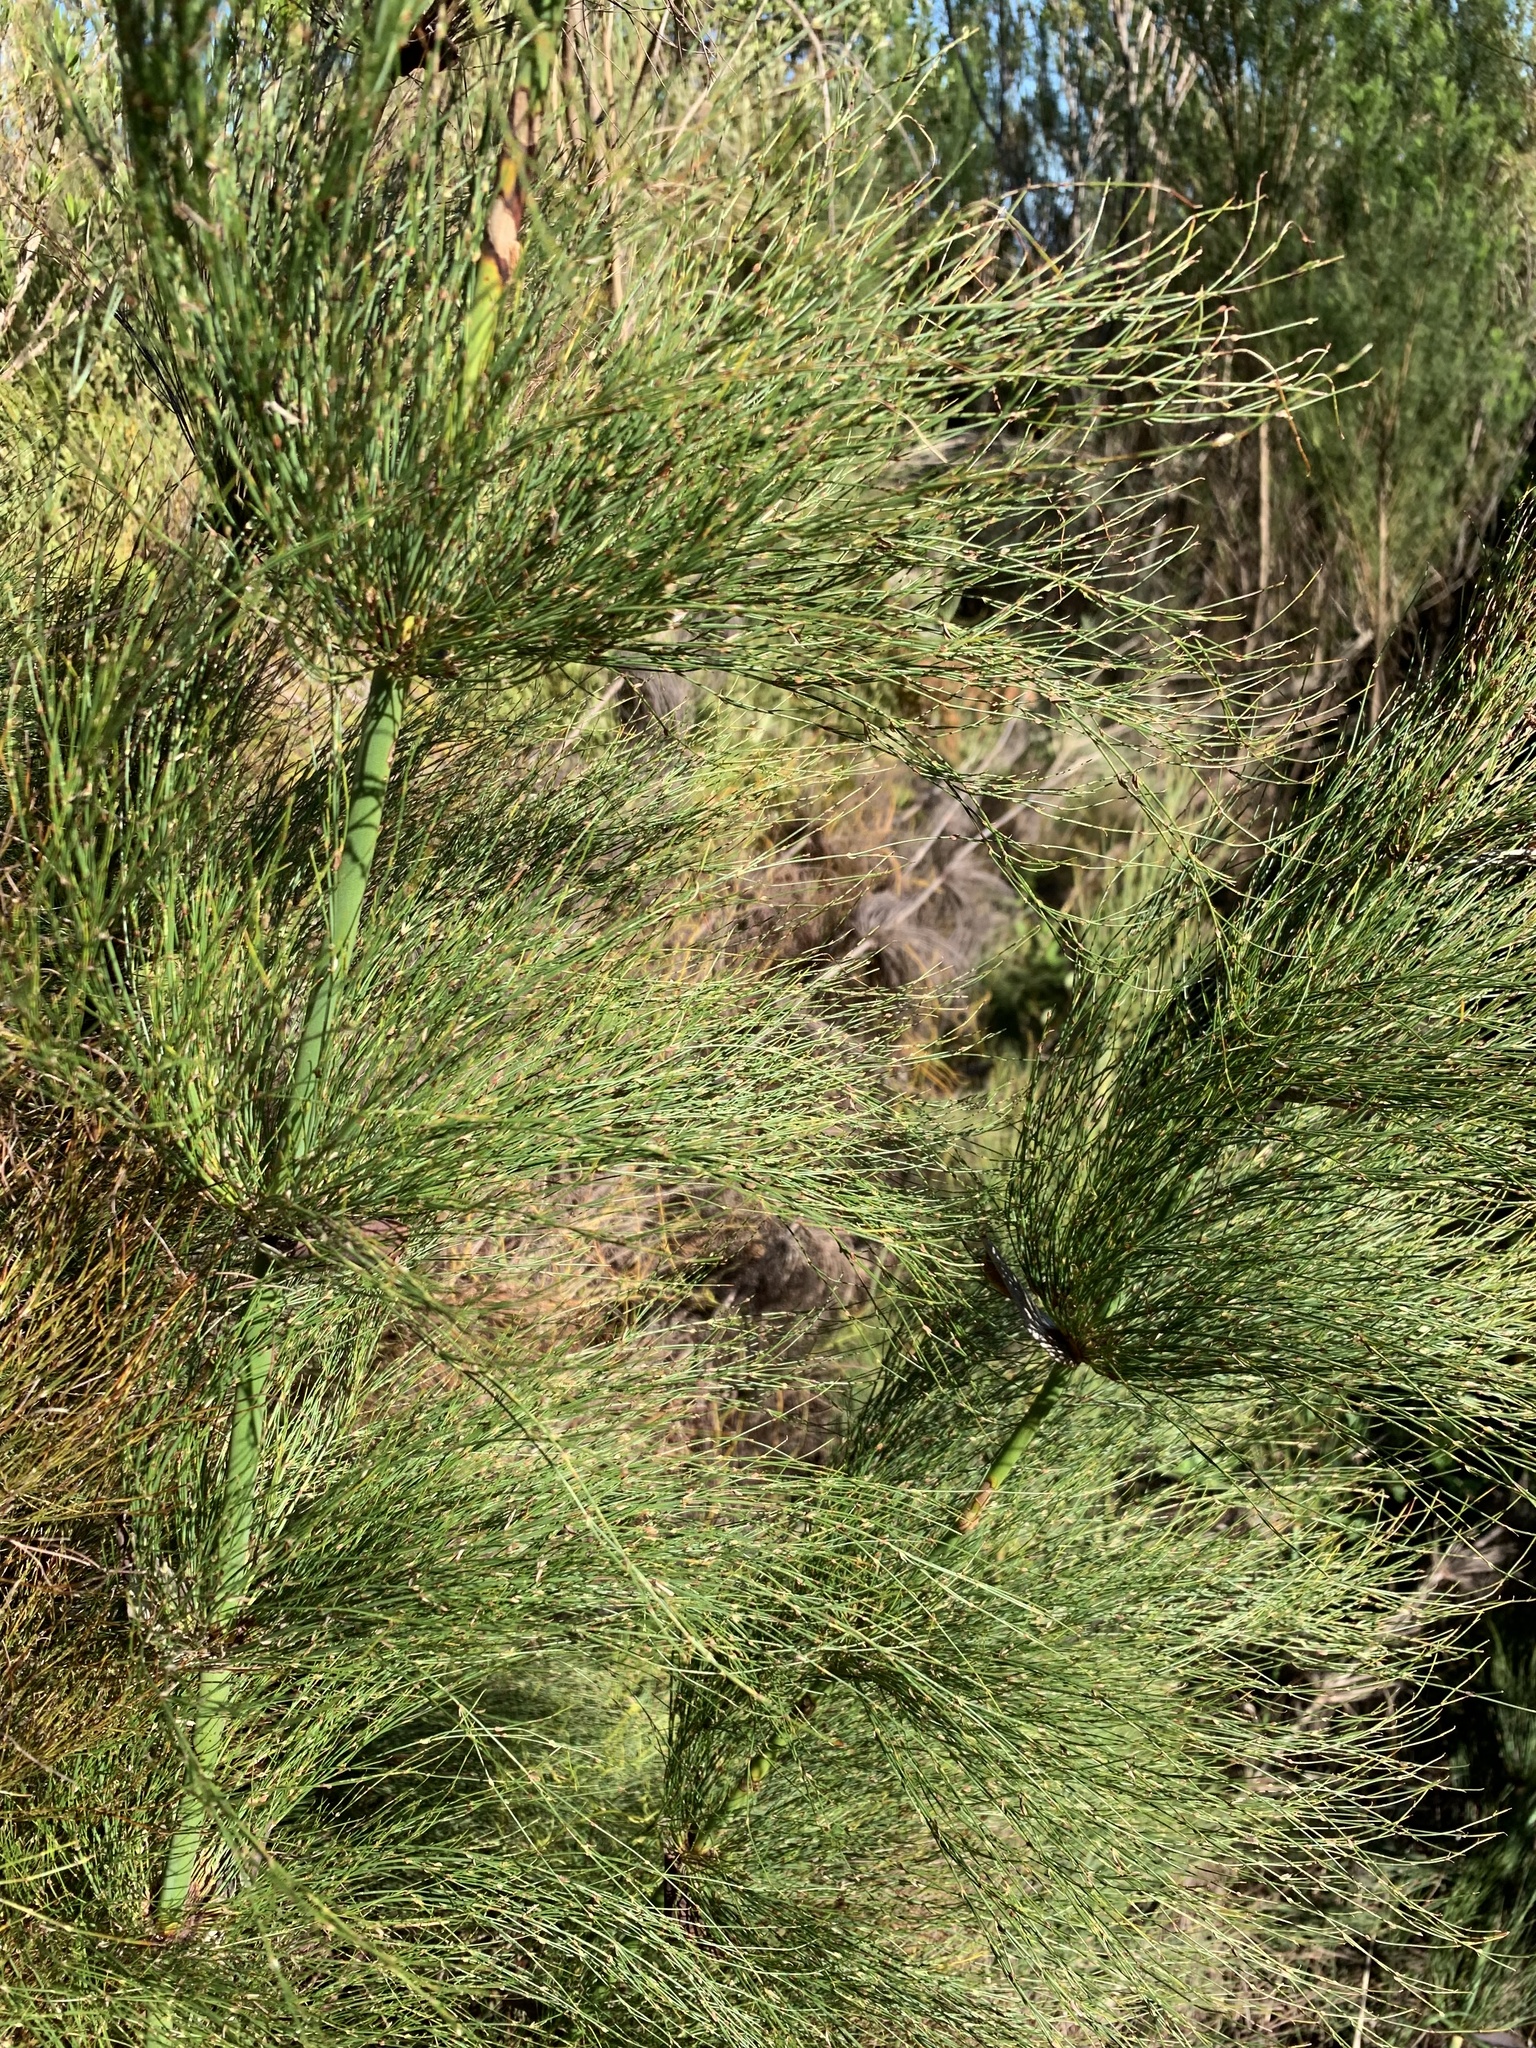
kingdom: Plantae
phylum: Tracheophyta
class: Liliopsida
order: Poales
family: Restionaceae
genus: Elegia
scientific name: Elegia capensis
